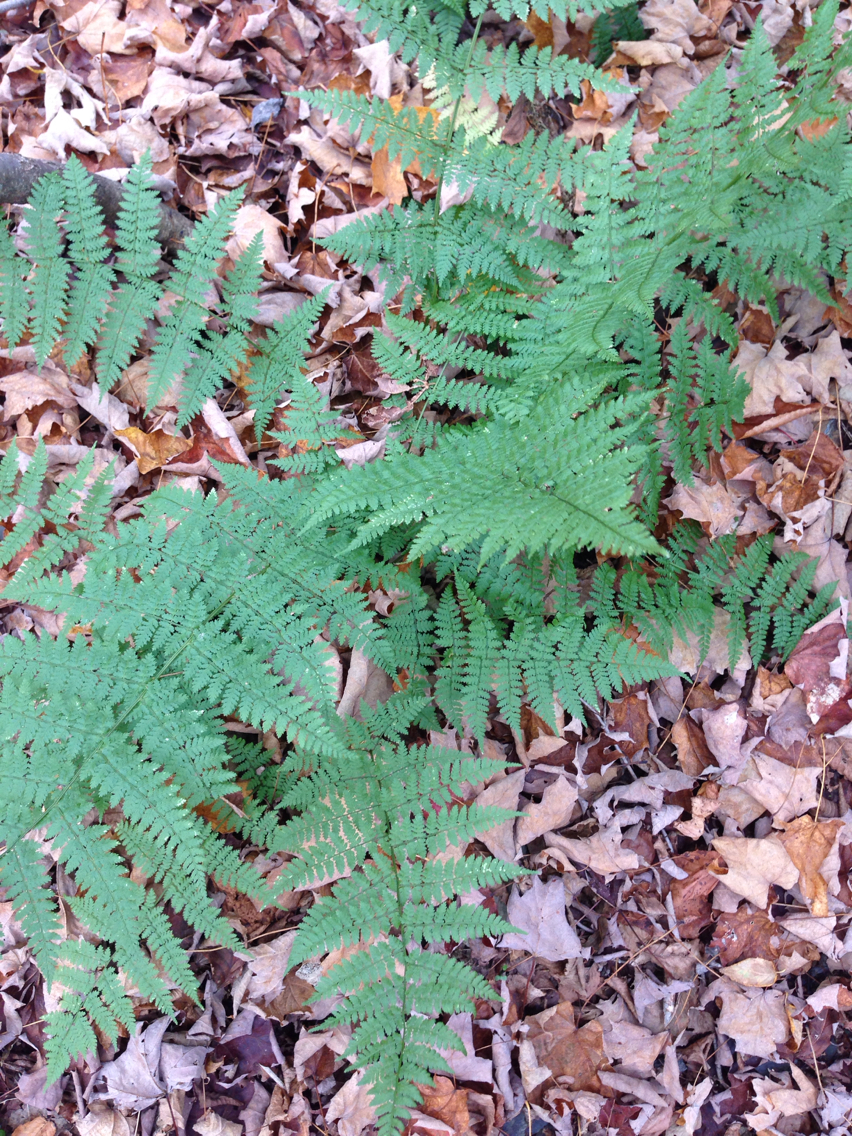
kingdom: Plantae
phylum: Tracheophyta
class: Polypodiopsida
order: Polypodiales
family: Dryopteridaceae
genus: Dryopteris
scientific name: Dryopteris intermedia
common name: Evergreen wood fern
